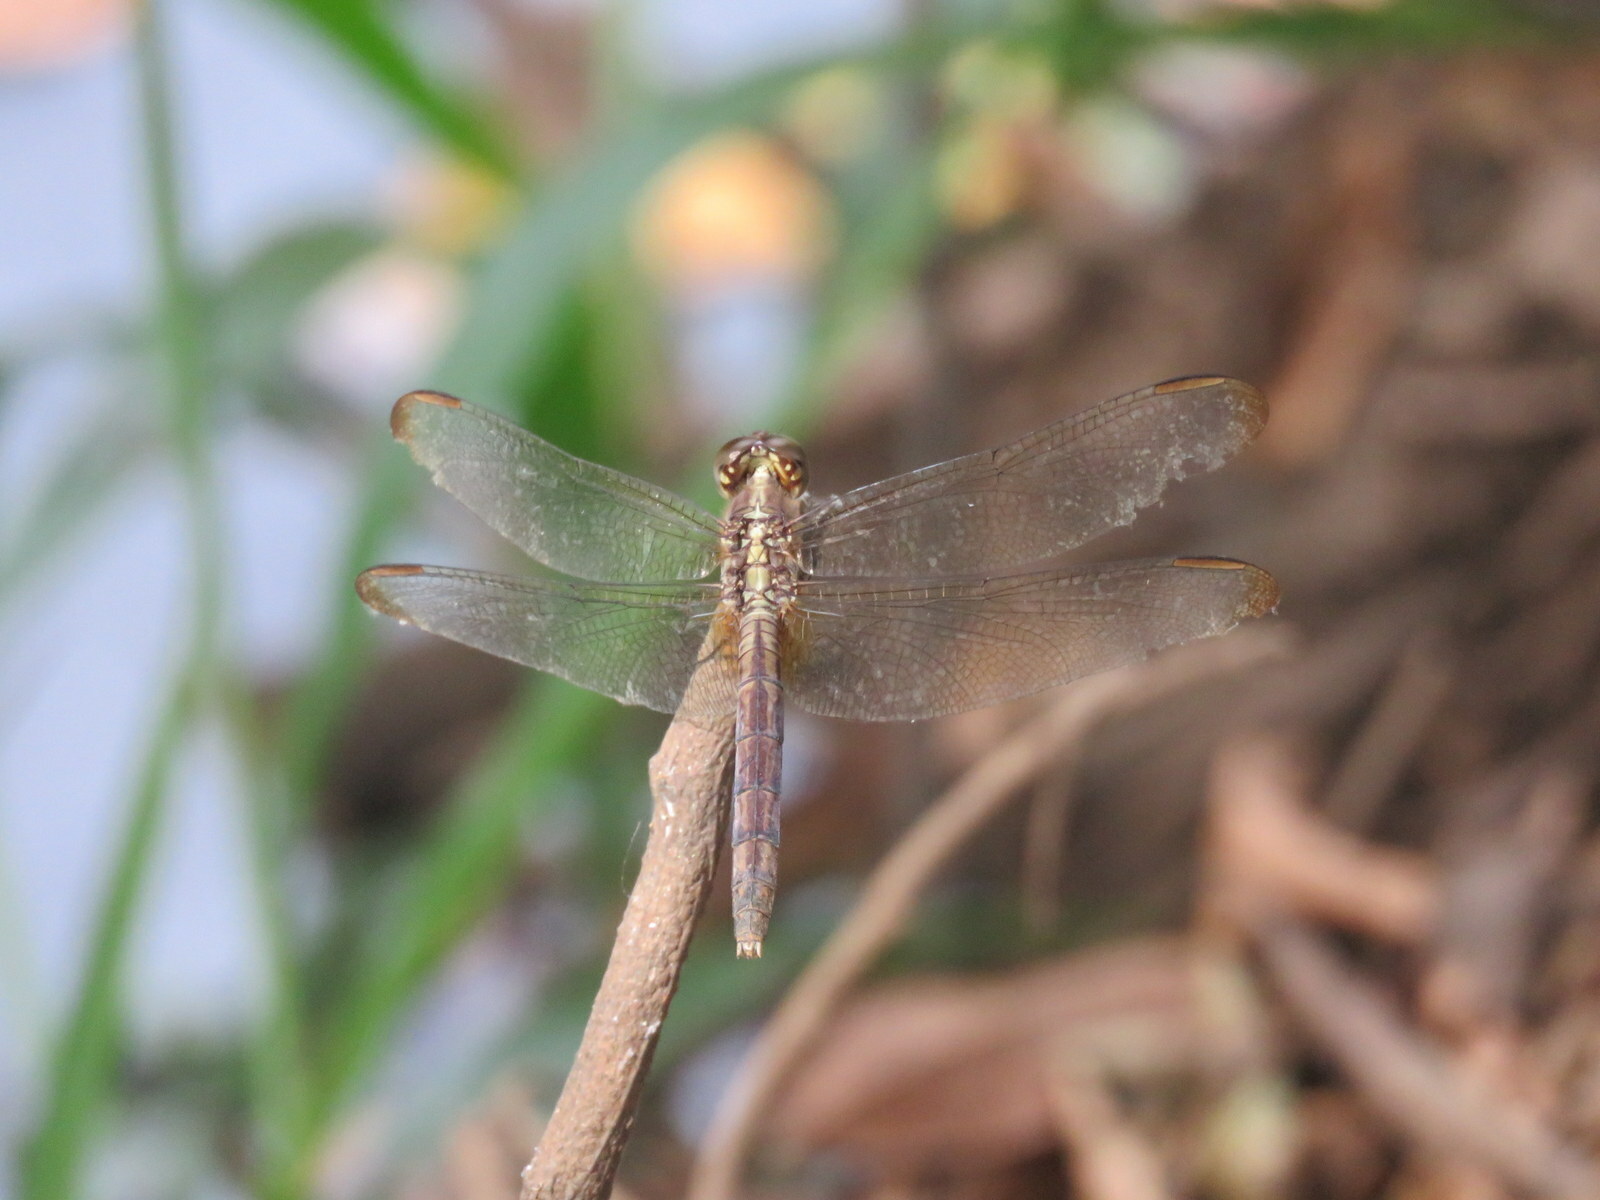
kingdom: Animalia
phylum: Arthropoda
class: Insecta
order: Odonata
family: Libellulidae
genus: Erythrodiplax
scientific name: Erythrodiplax umbrata
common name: Band-winged dragonlet
